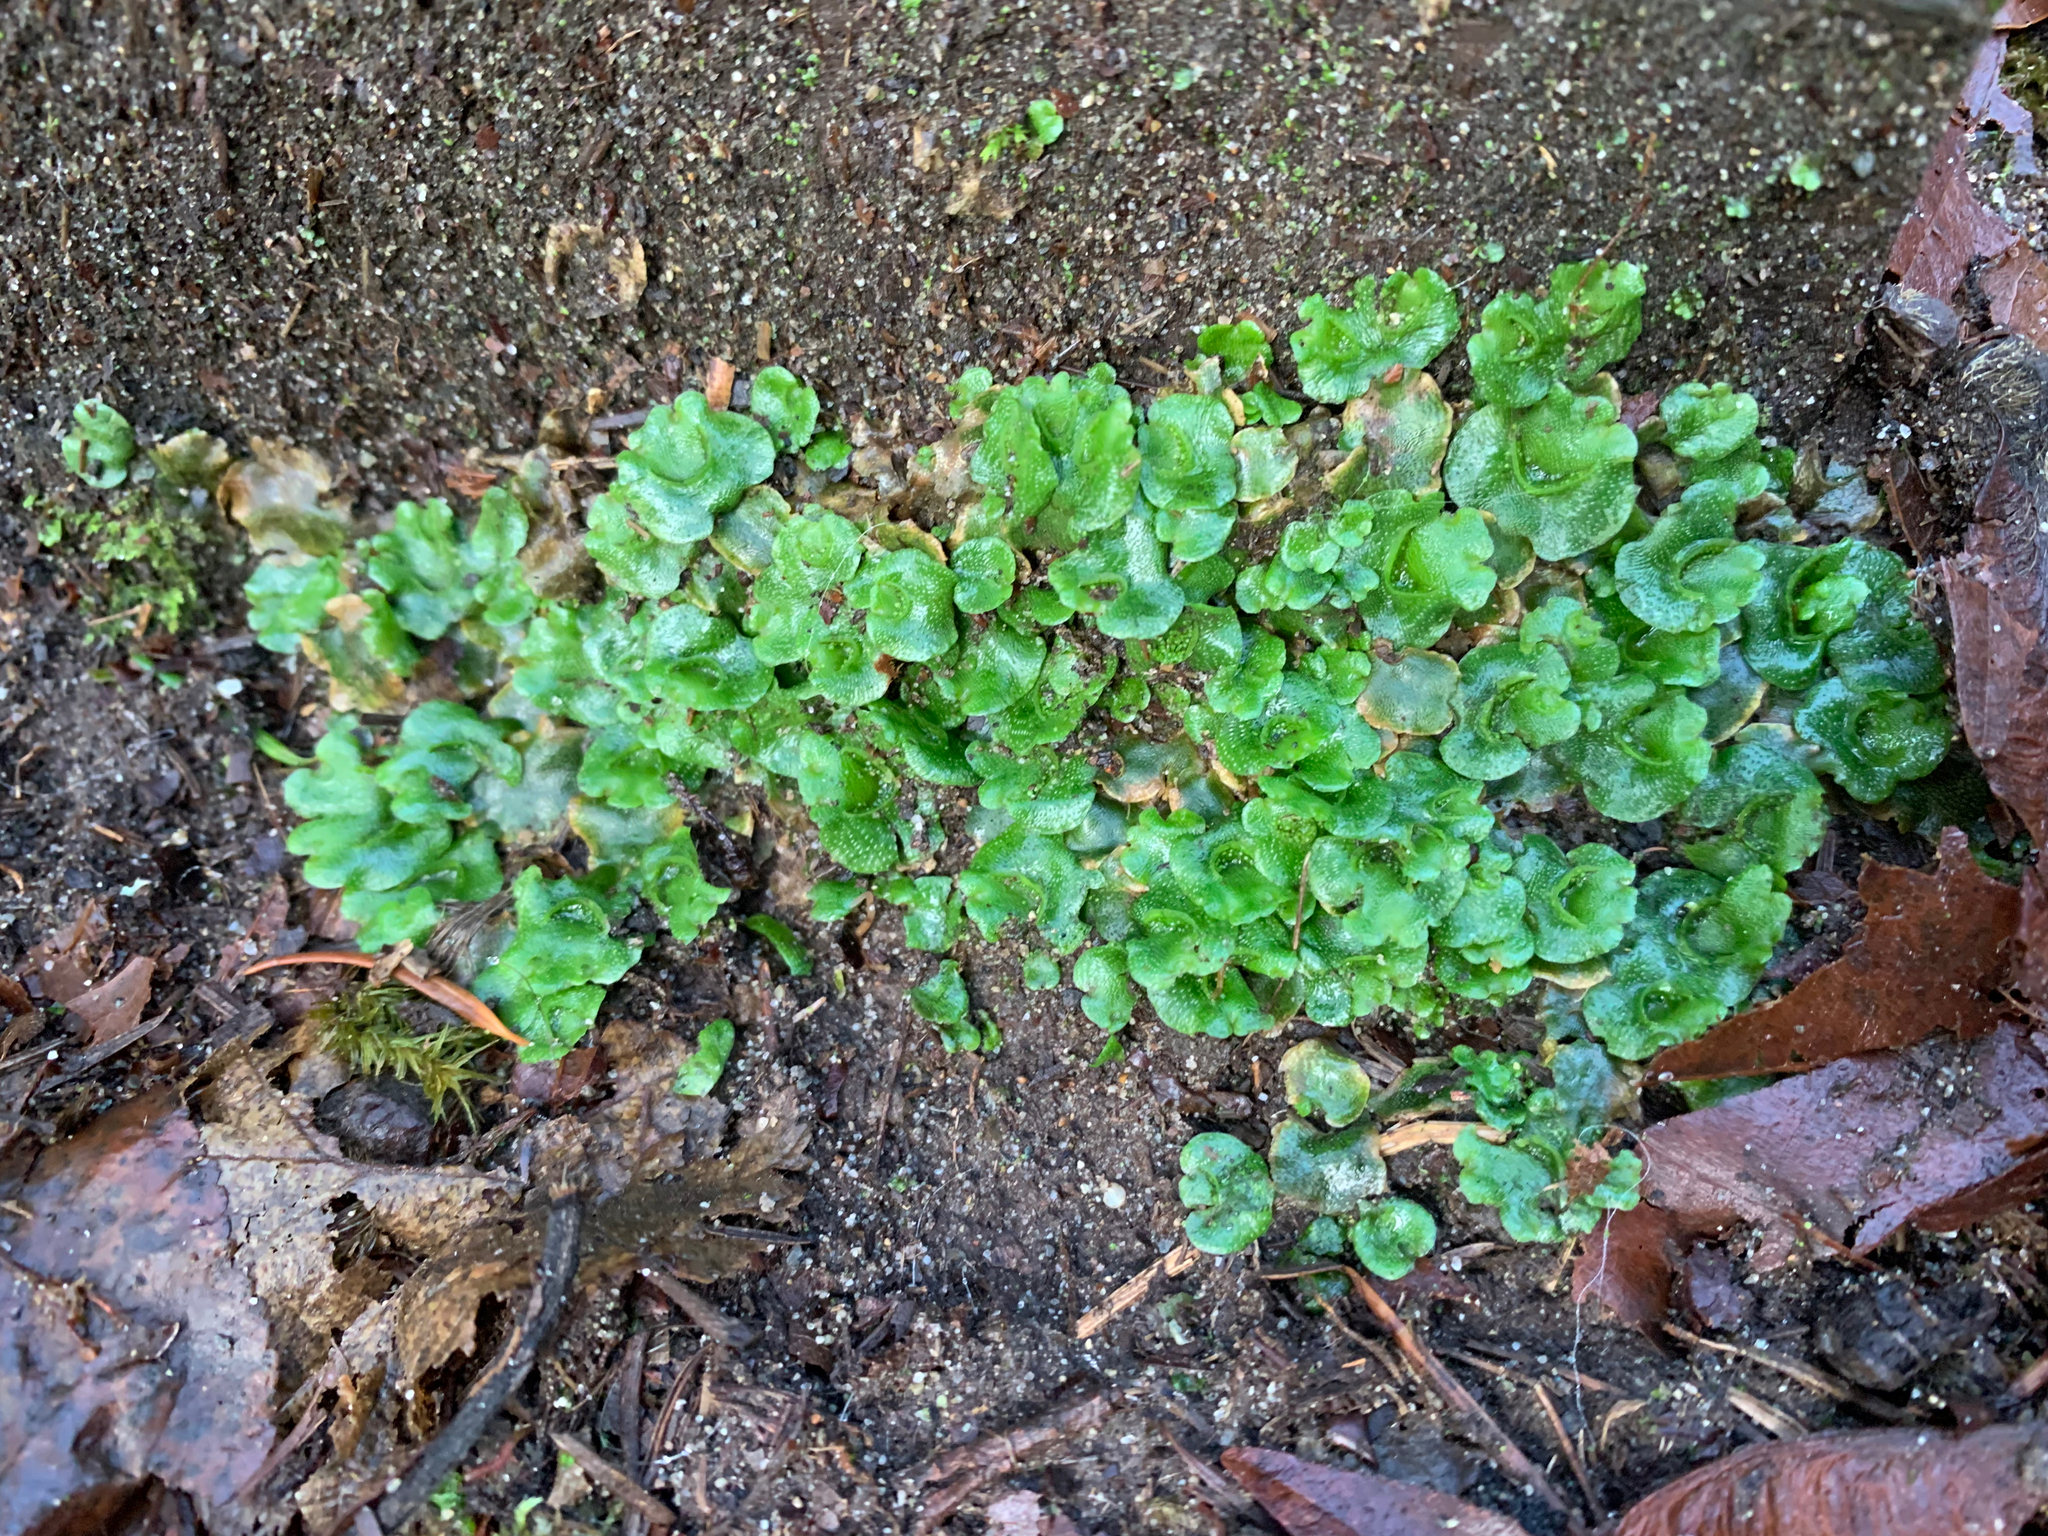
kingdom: Plantae
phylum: Marchantiophyta
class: Marchantiopsida
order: Lunulariales
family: Lunulariaceae
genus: Lunularia
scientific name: Lunularia cruciata
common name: Crescent-cup liverwort
